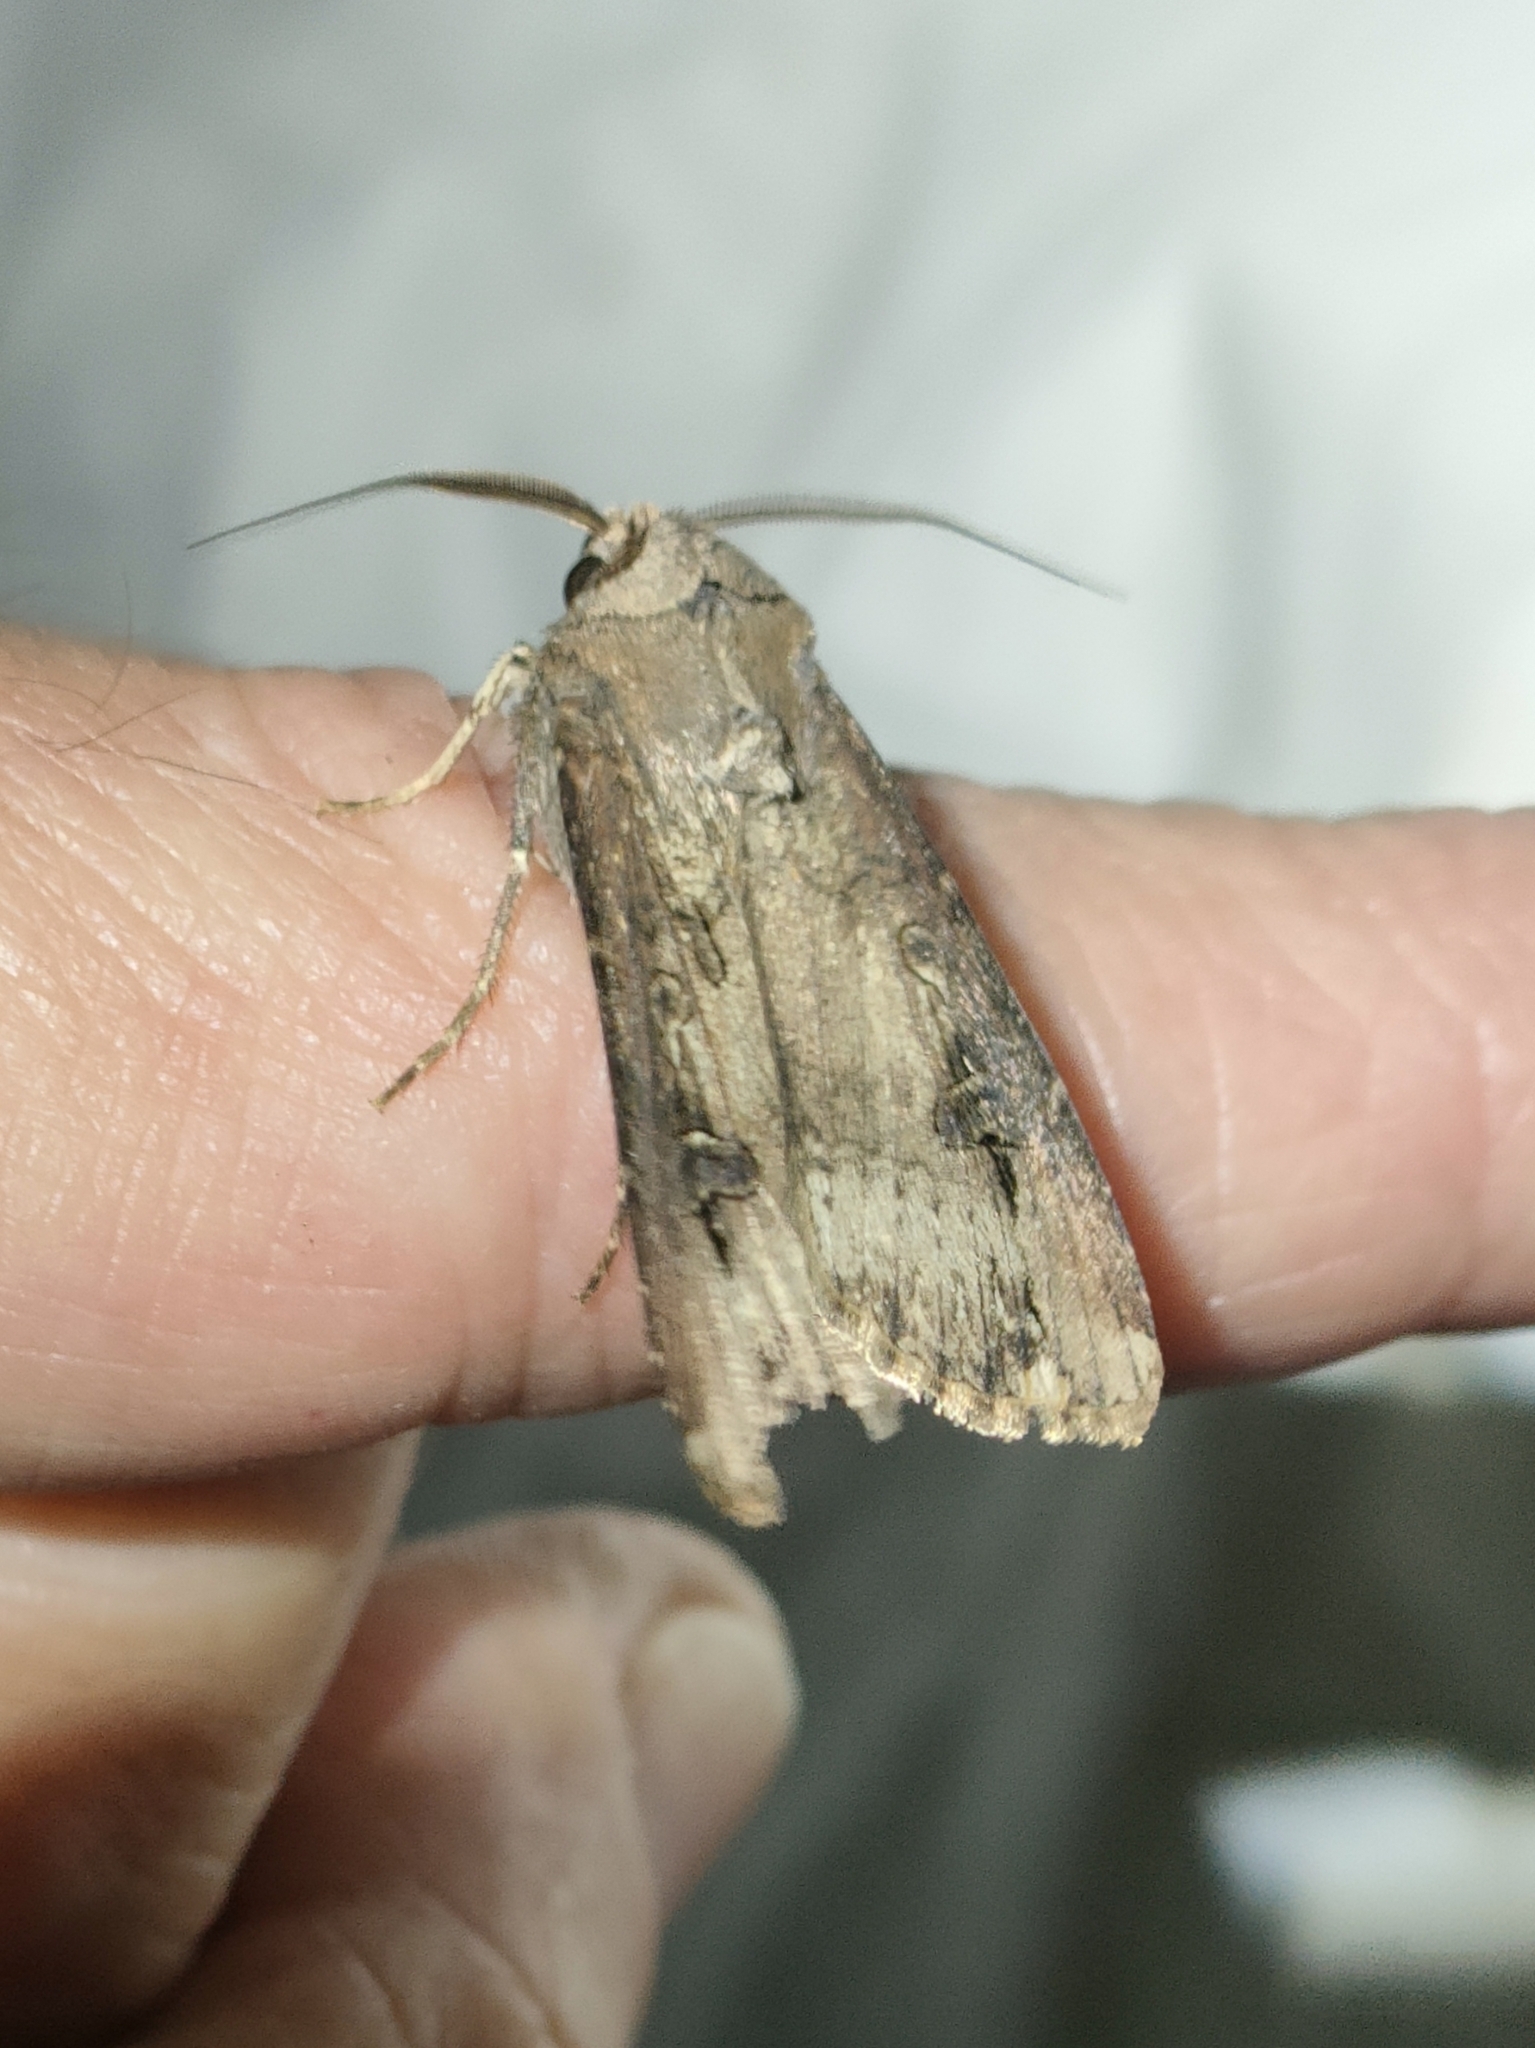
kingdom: Animalia
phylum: Arthropoda
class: Insecta
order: Lepidoptera
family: Noctuidae
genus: Agrotis
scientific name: Agrotis ipsilon
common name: Dark sword-grass
